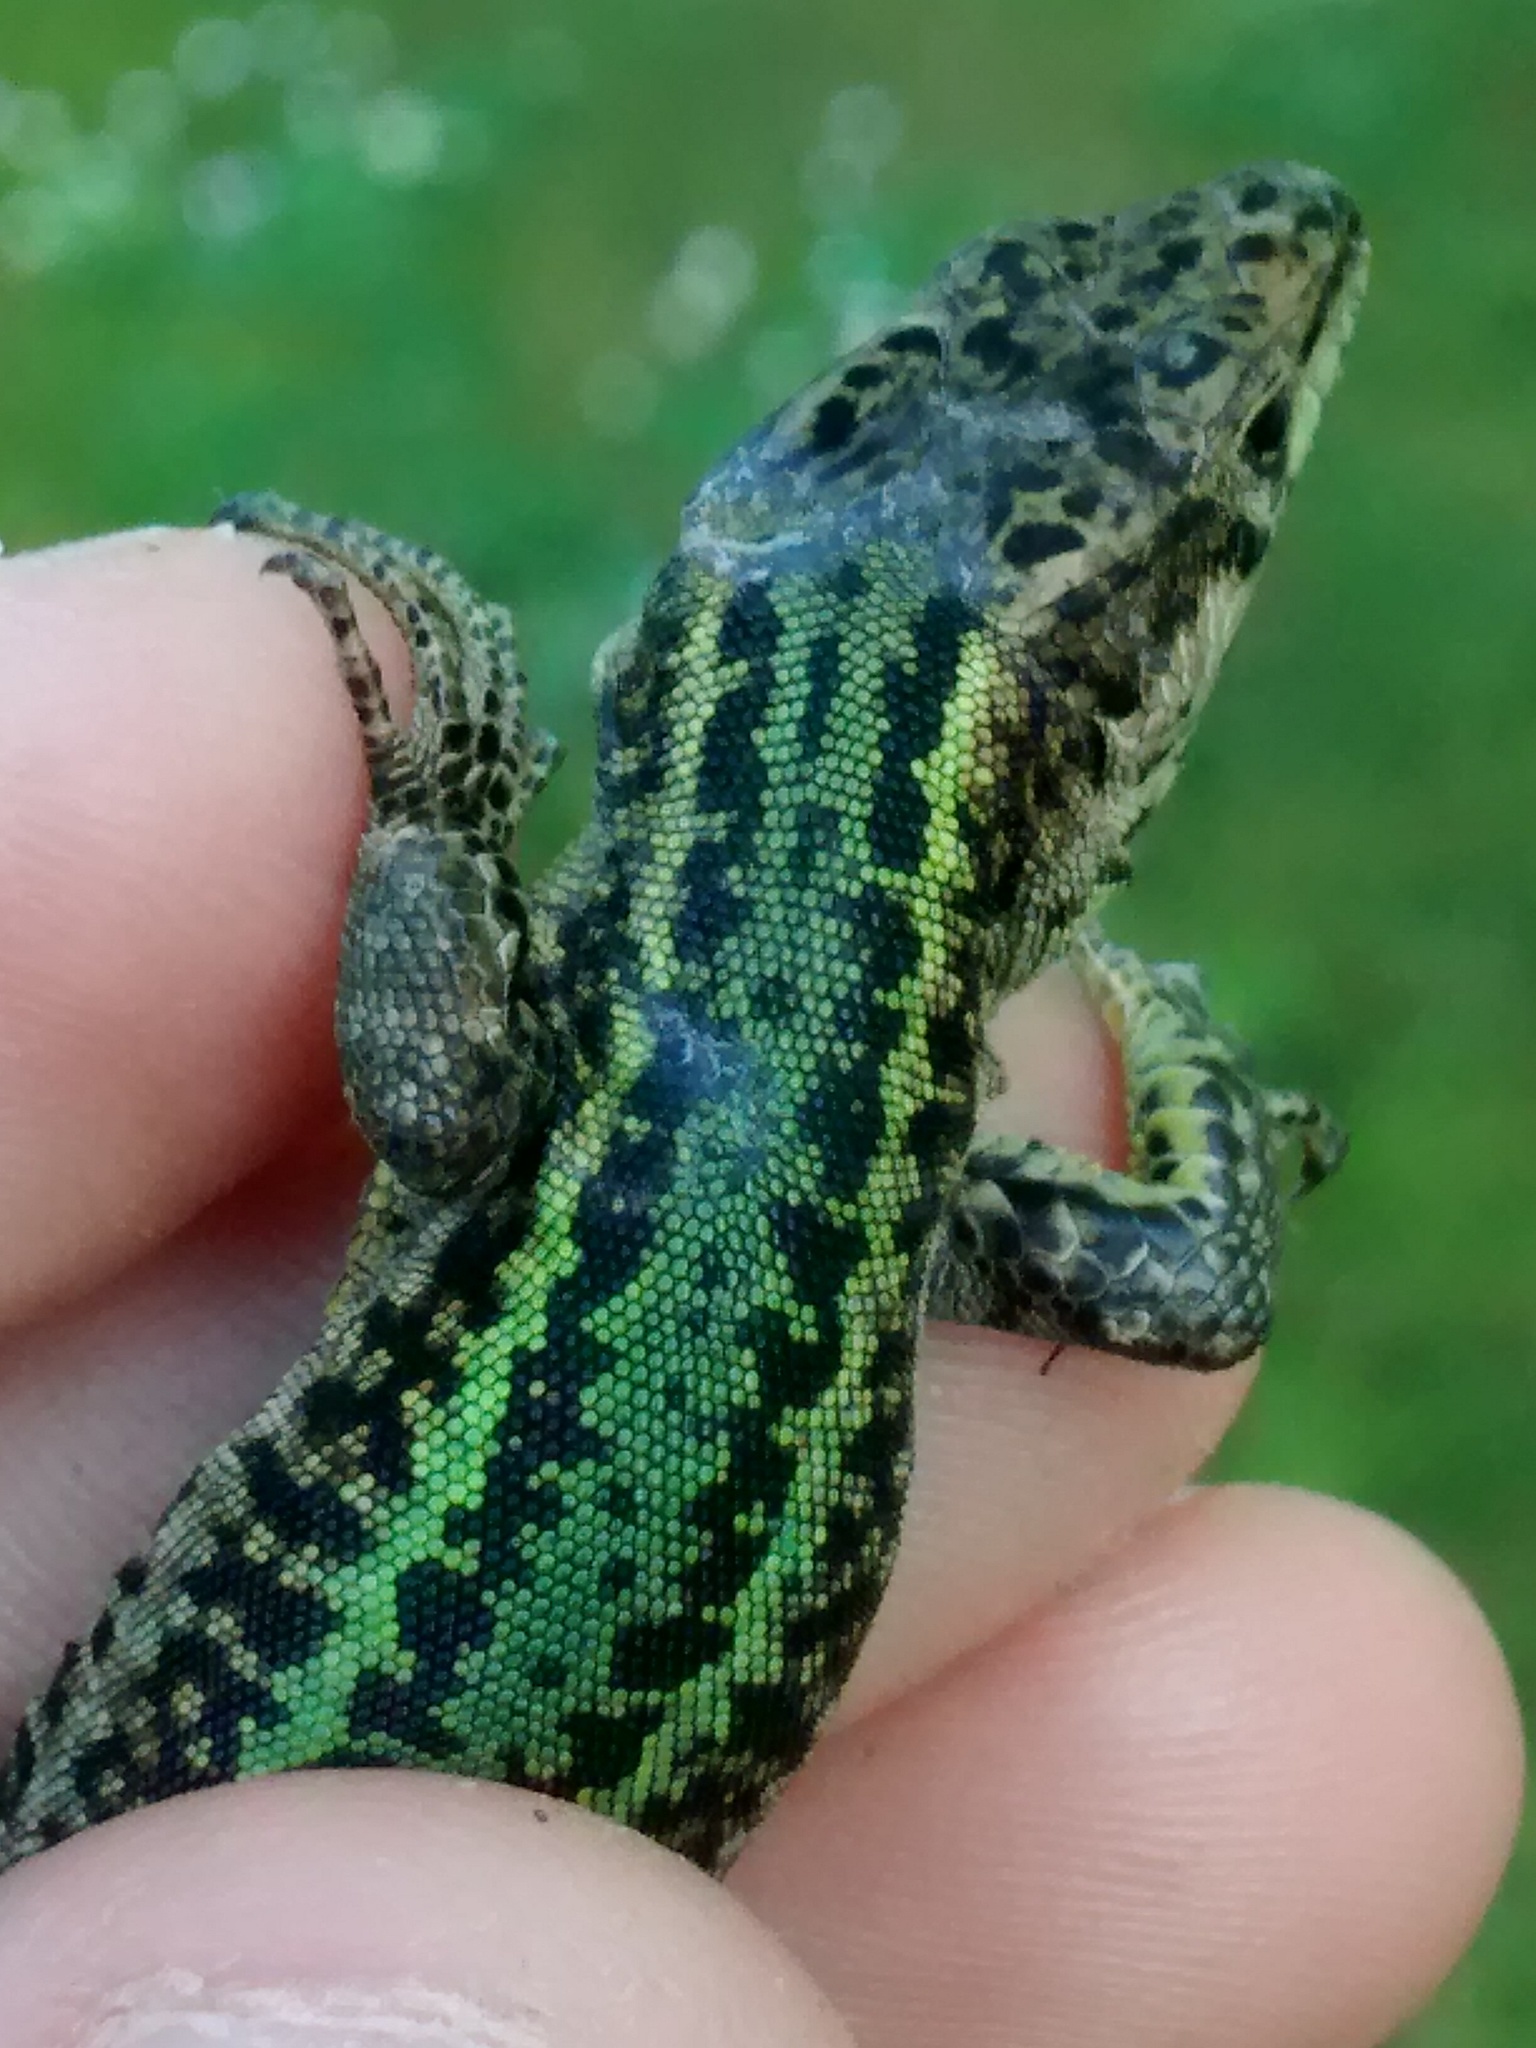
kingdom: Animalia
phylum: Chordata
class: Squamata
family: Lacertidae
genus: Podarcis
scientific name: Podarcis bocagei
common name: Bocage's wall lizard
